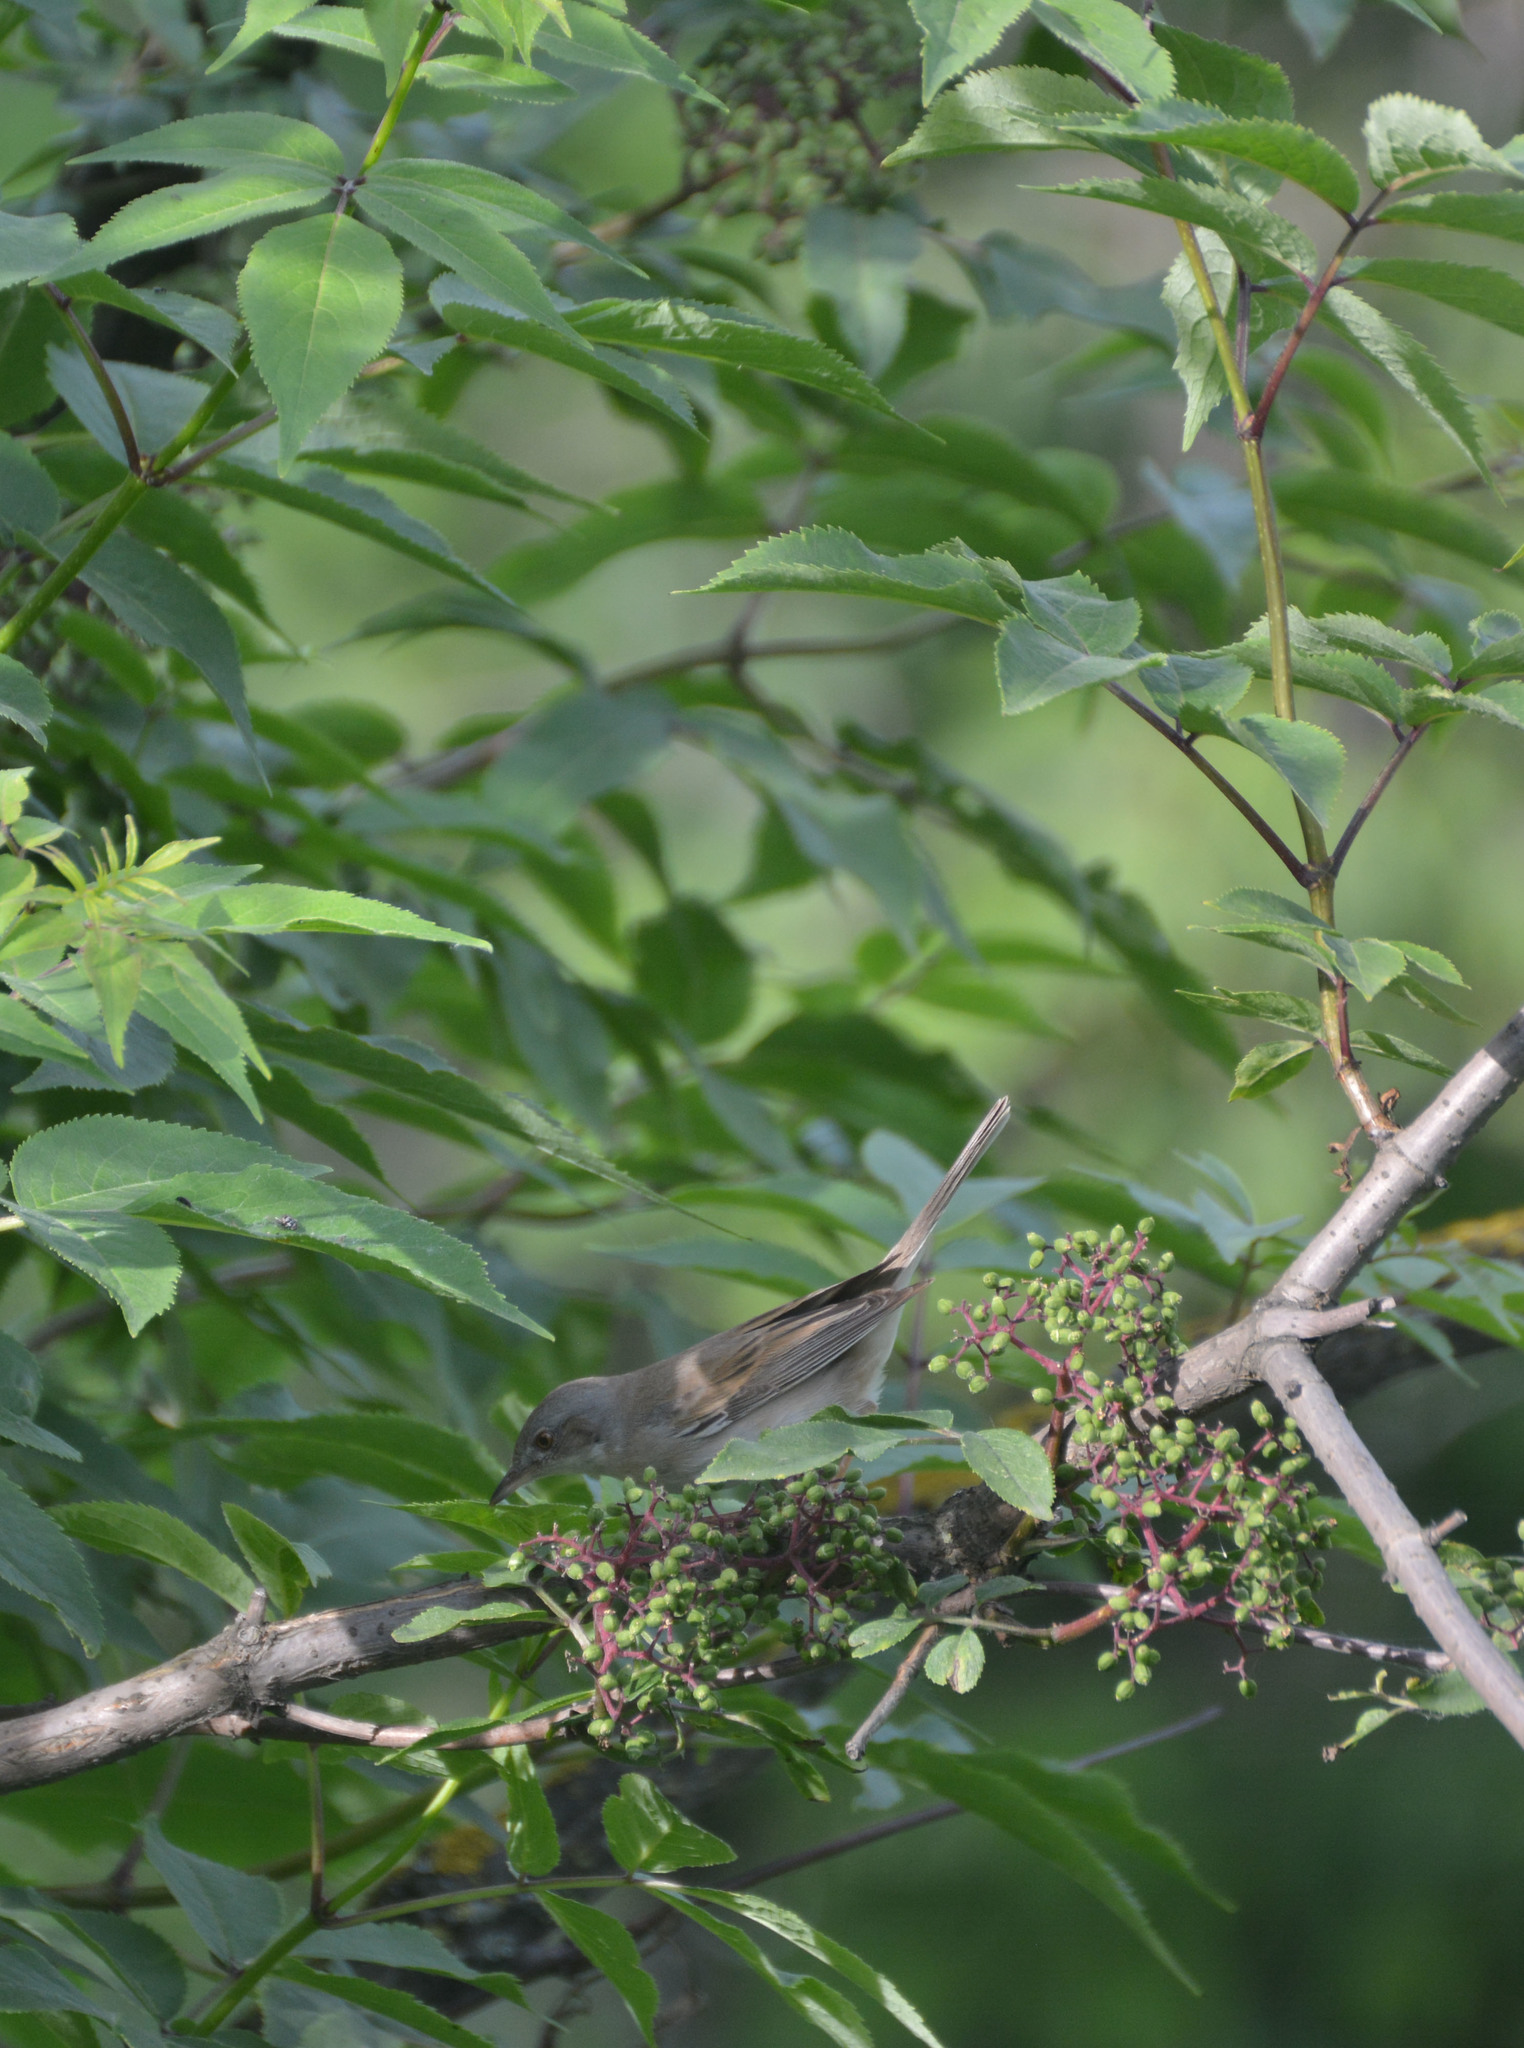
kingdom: Animalia
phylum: Chordata
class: Aves
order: Passeriformes
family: Sylviidae
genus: Sylvia
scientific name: Sylvia communis
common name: Common whitethroat
